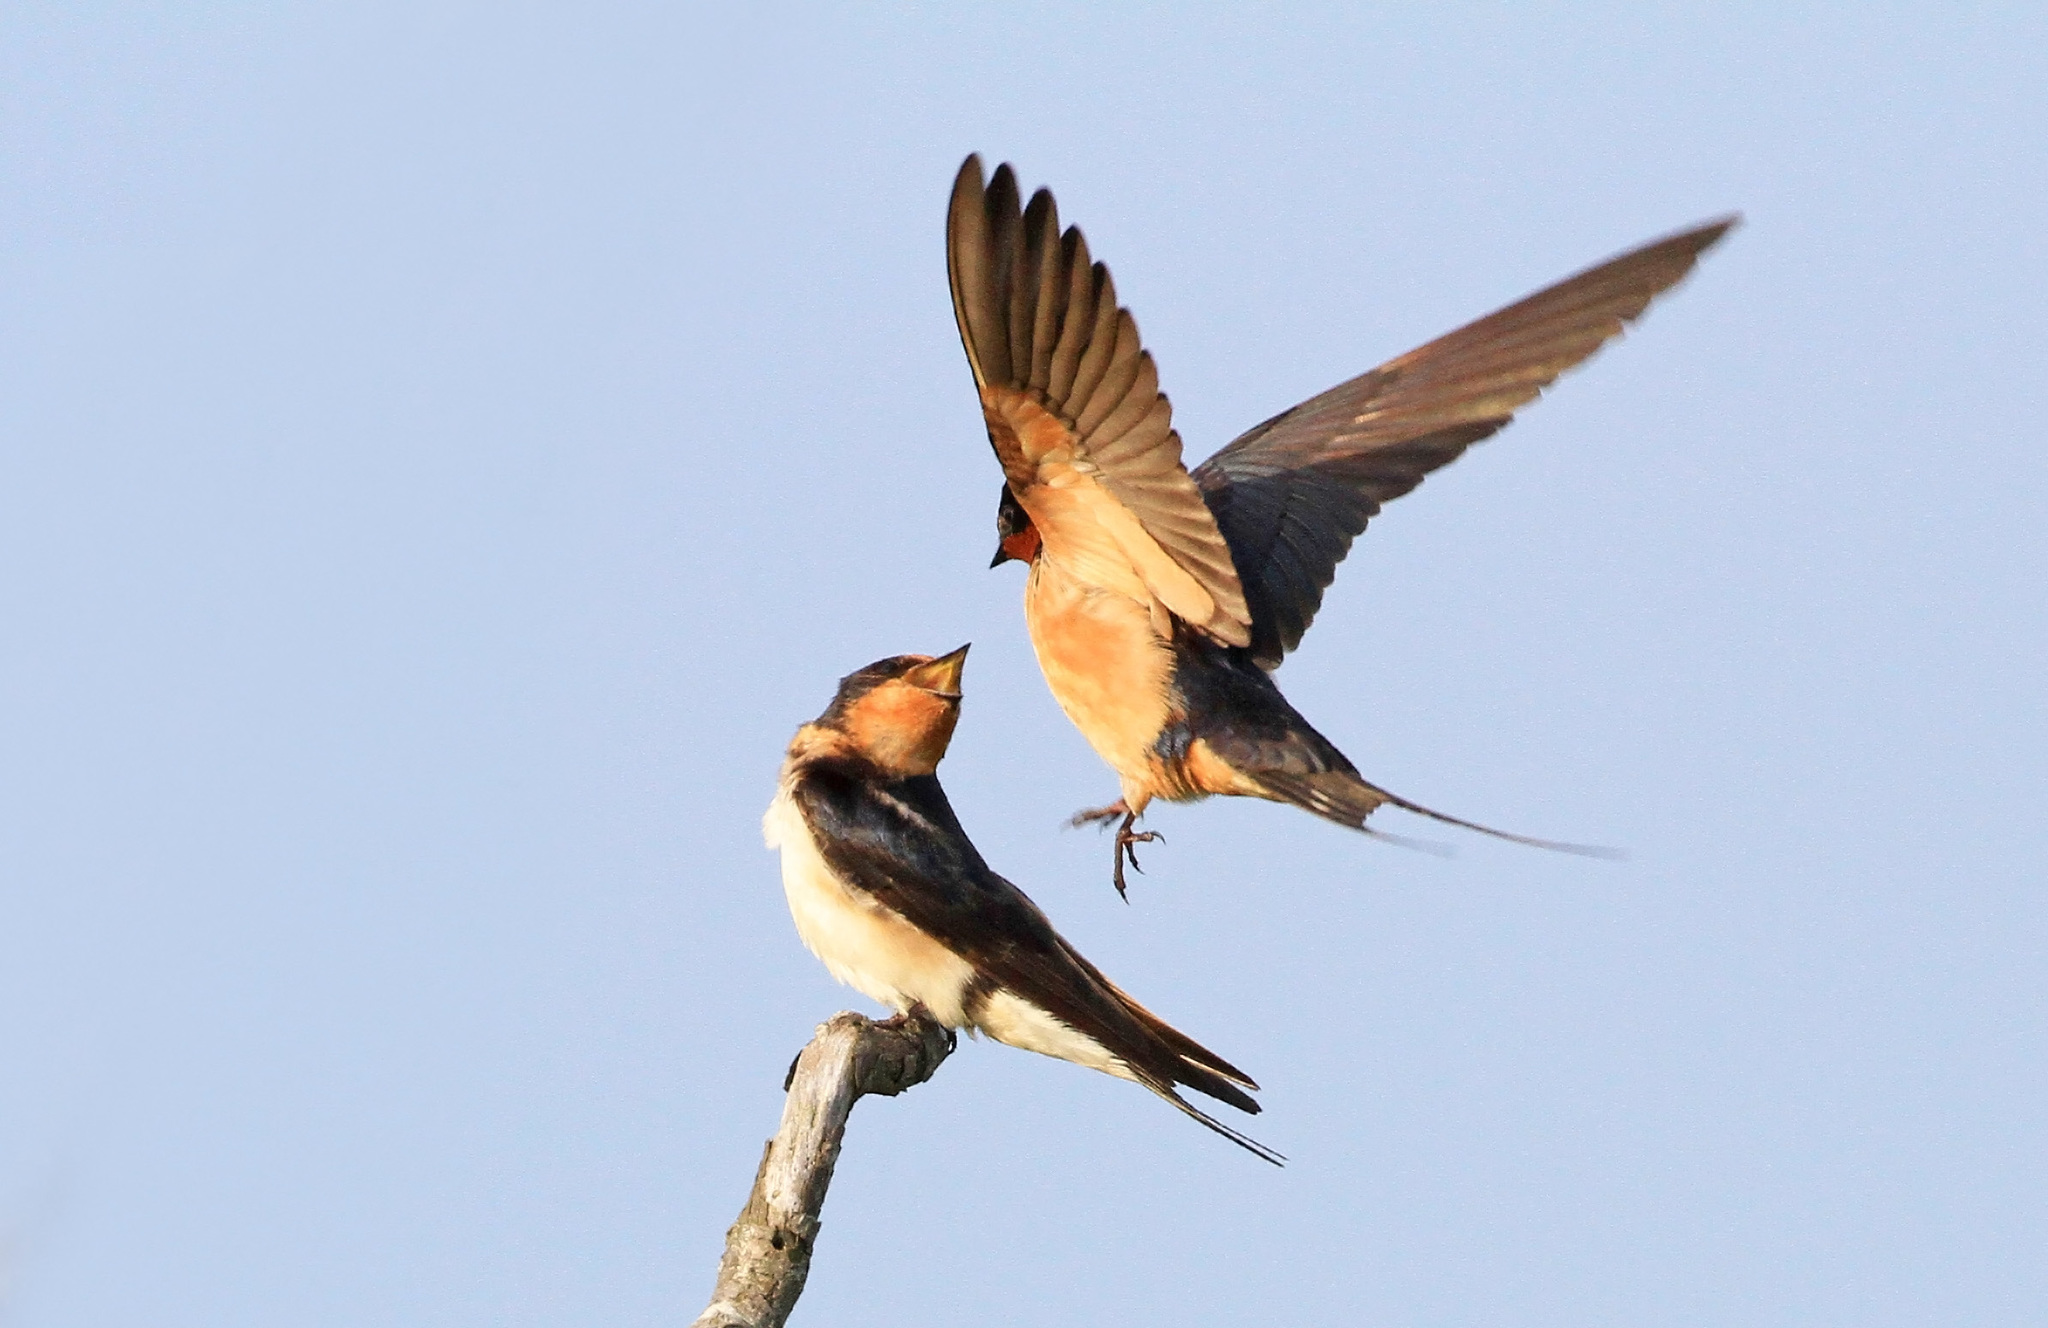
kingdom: Animalia
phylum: Chordata
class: Aves
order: Passeriformes
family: Hirundinidae
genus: Hirundo
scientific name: Hirundo rustica
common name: Barn swallow
